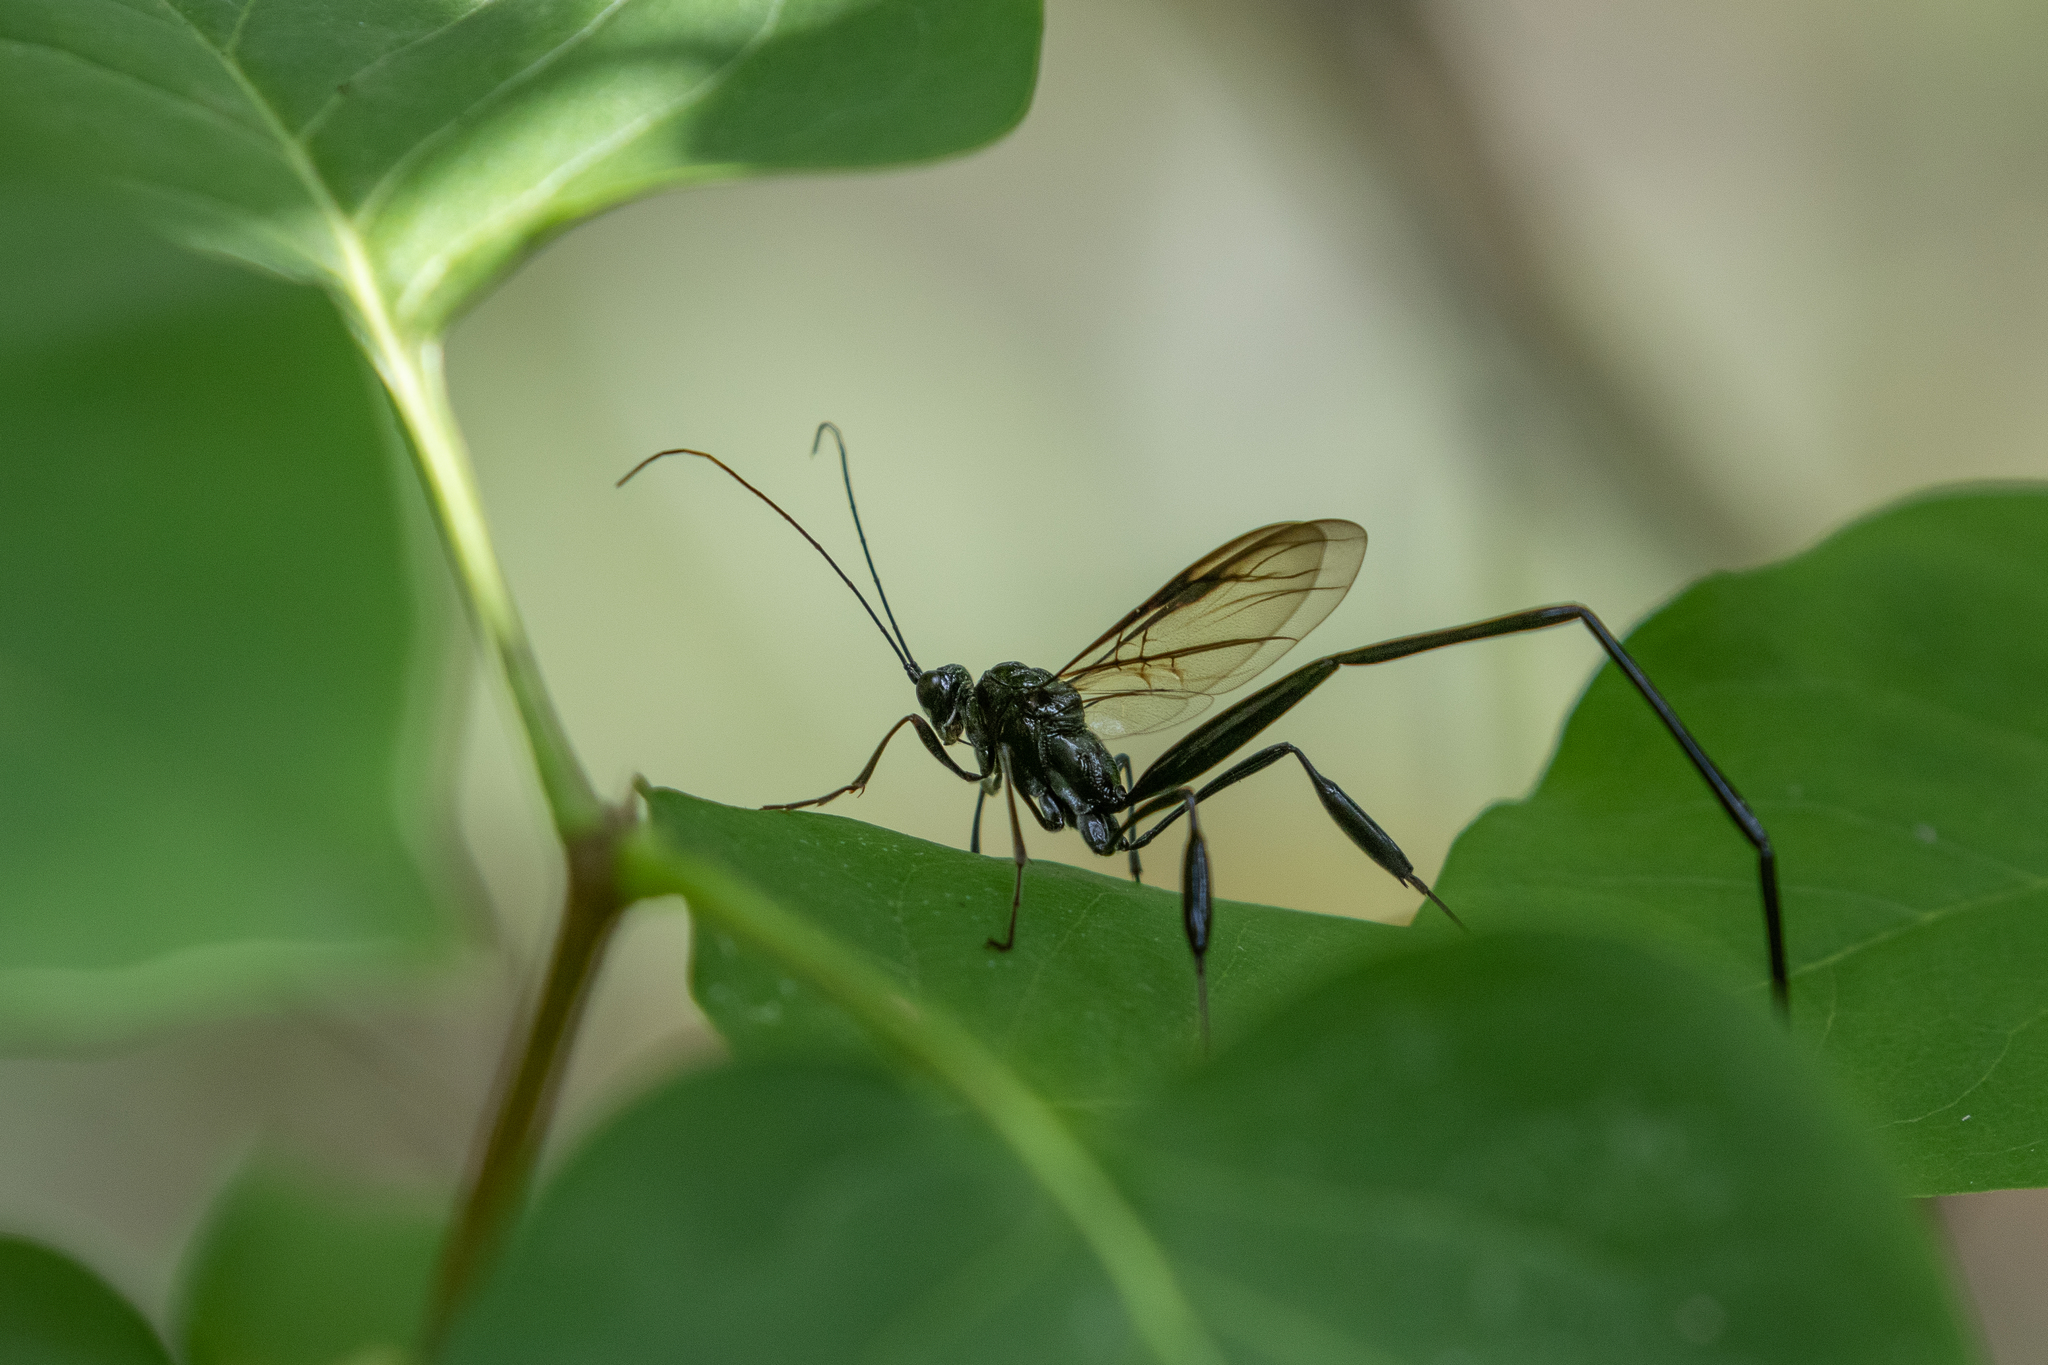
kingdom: Animalia
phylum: Arthropoda
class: Insecta
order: Hymenoptera
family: Pelecinidae
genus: Pelecinus
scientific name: Pelecinus polyturator
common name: American pelecinid wasp
